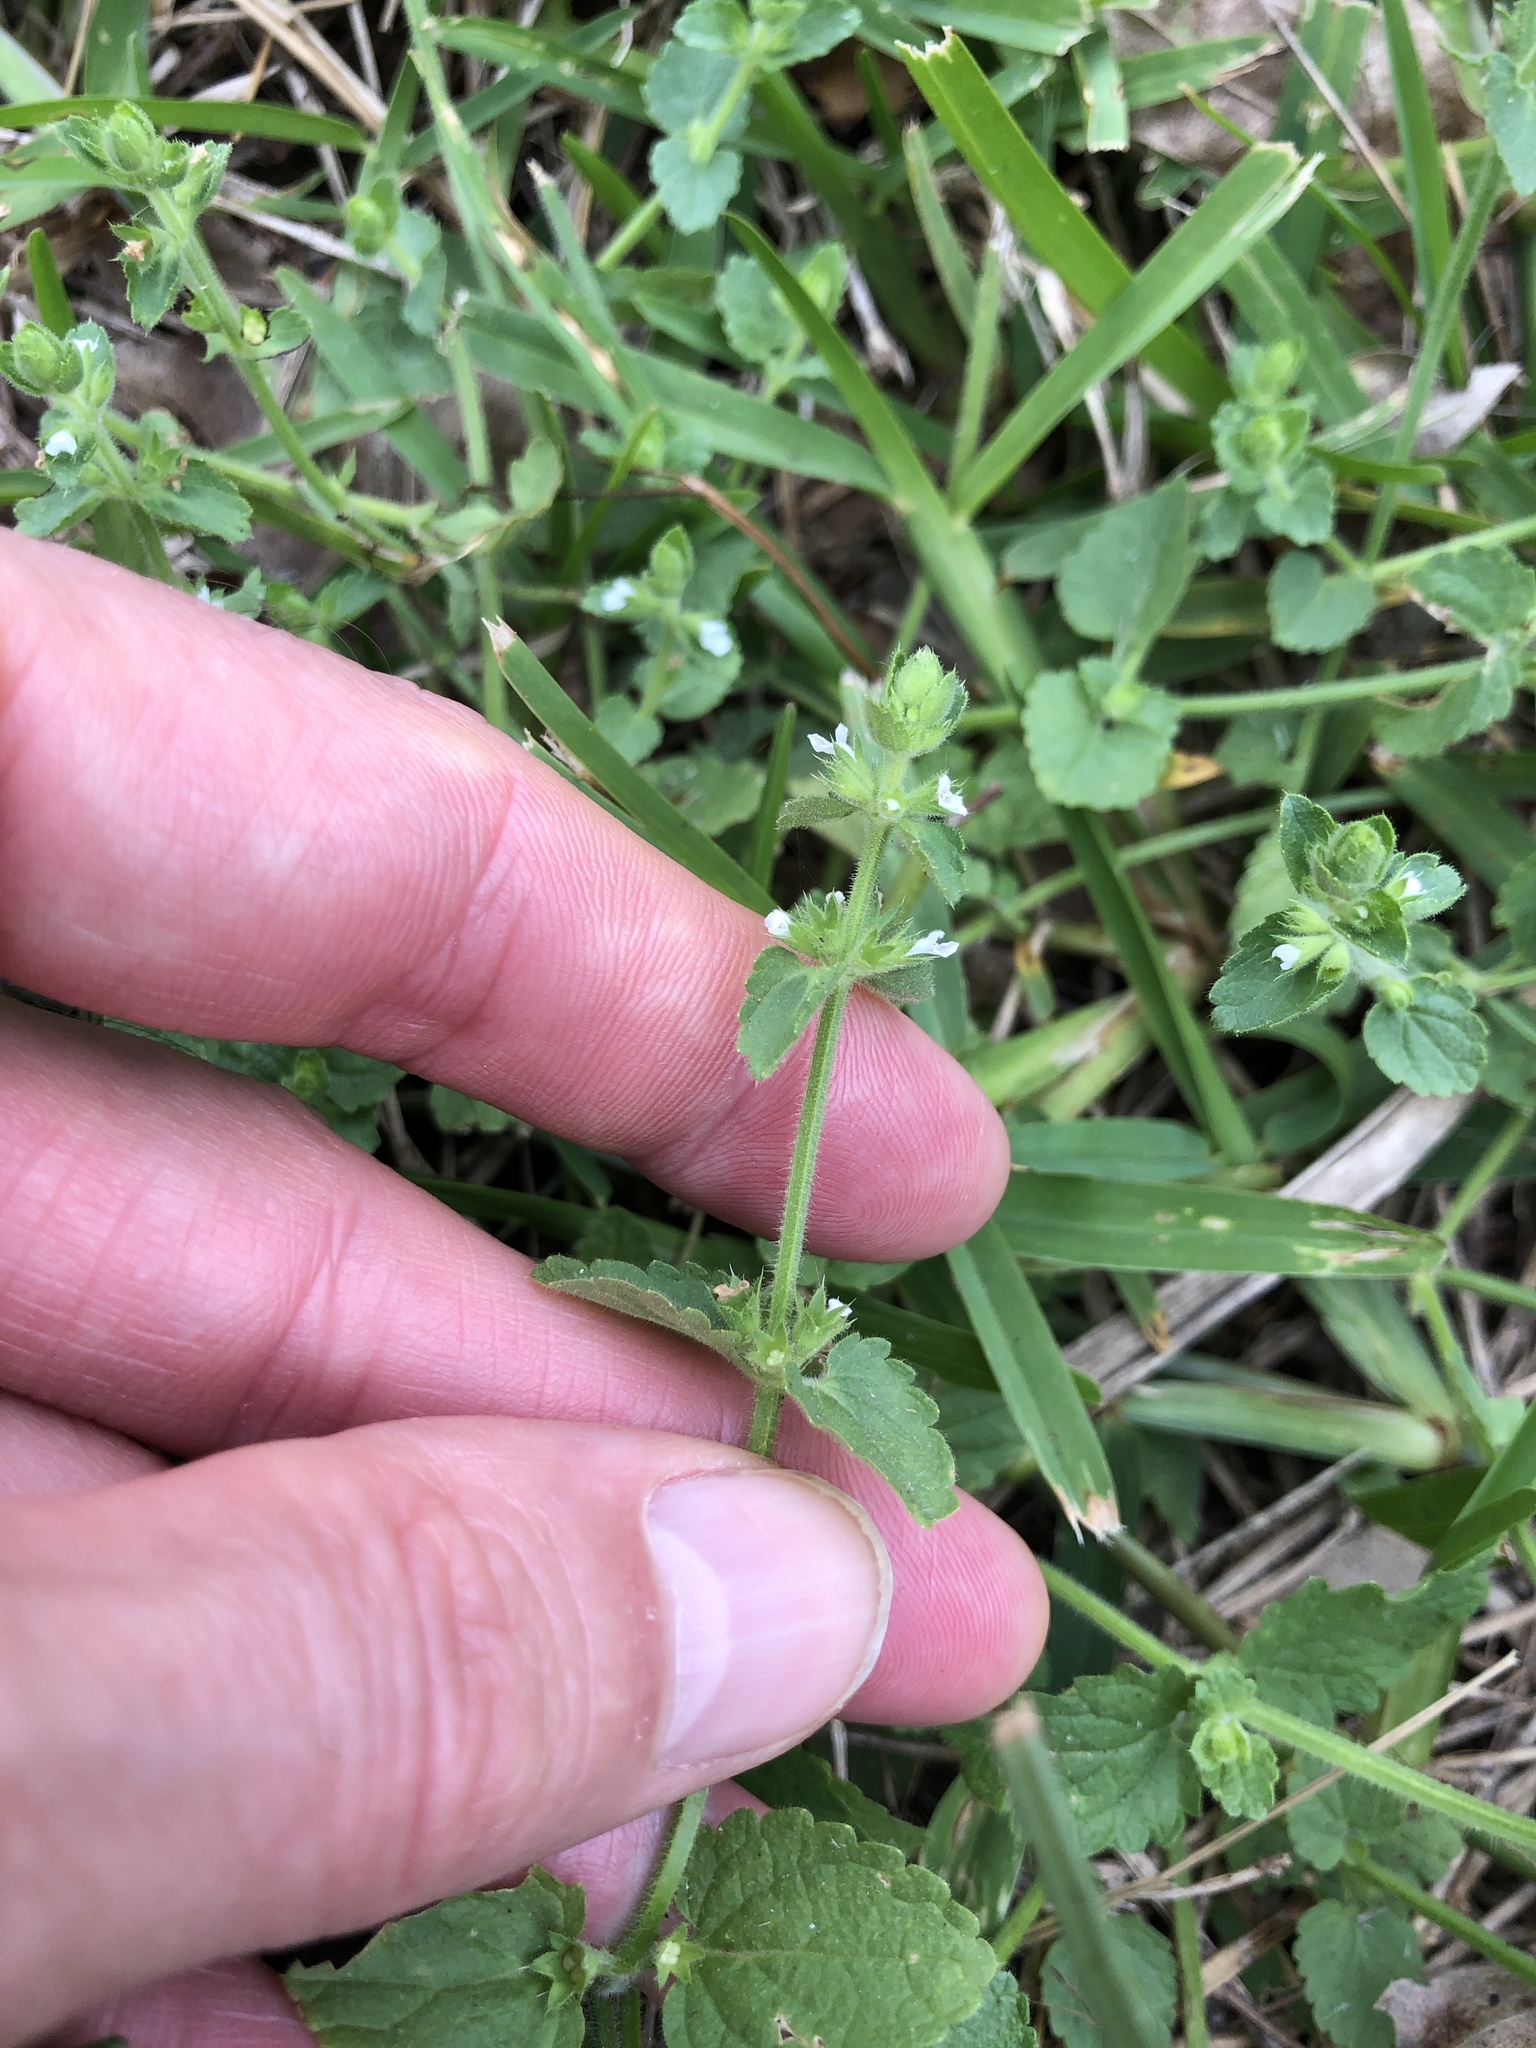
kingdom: Plantae
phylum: Tracheophyta
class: Magnoliopsida
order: Lamiales
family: Lamiaceae
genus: Stachys
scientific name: Stachys
